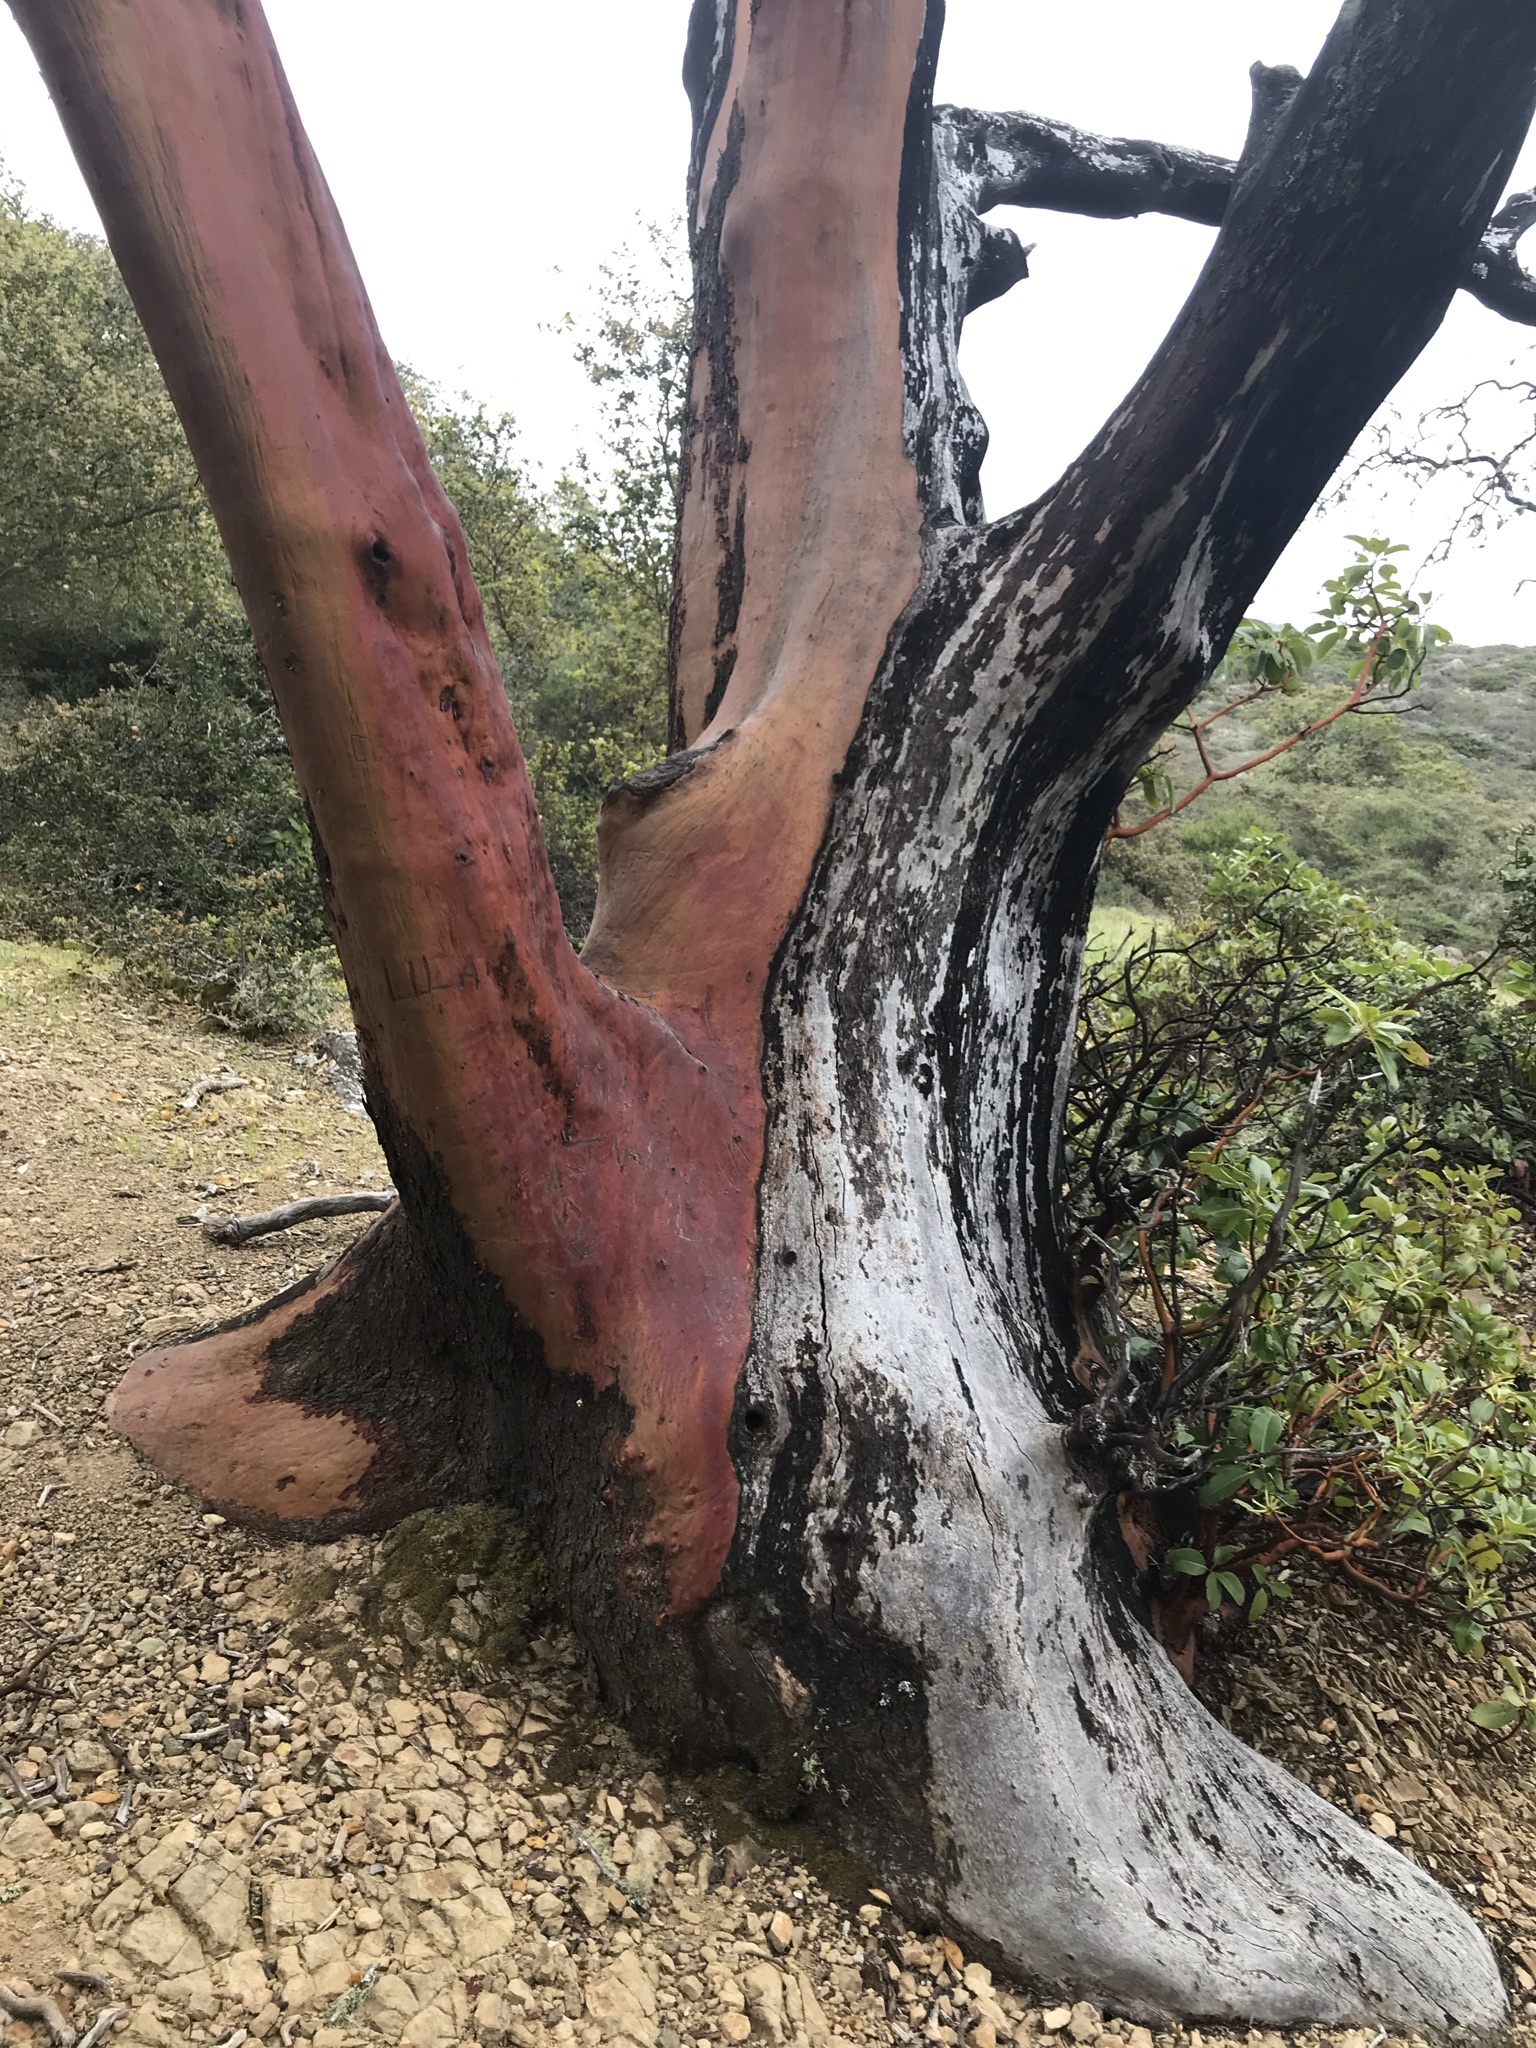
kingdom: Plantae
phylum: Tracheophyta
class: Magnoliopsida
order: Ericales
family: Ericaceae
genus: Arbutus
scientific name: Arbutus menziesii
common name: Pacific madrone
